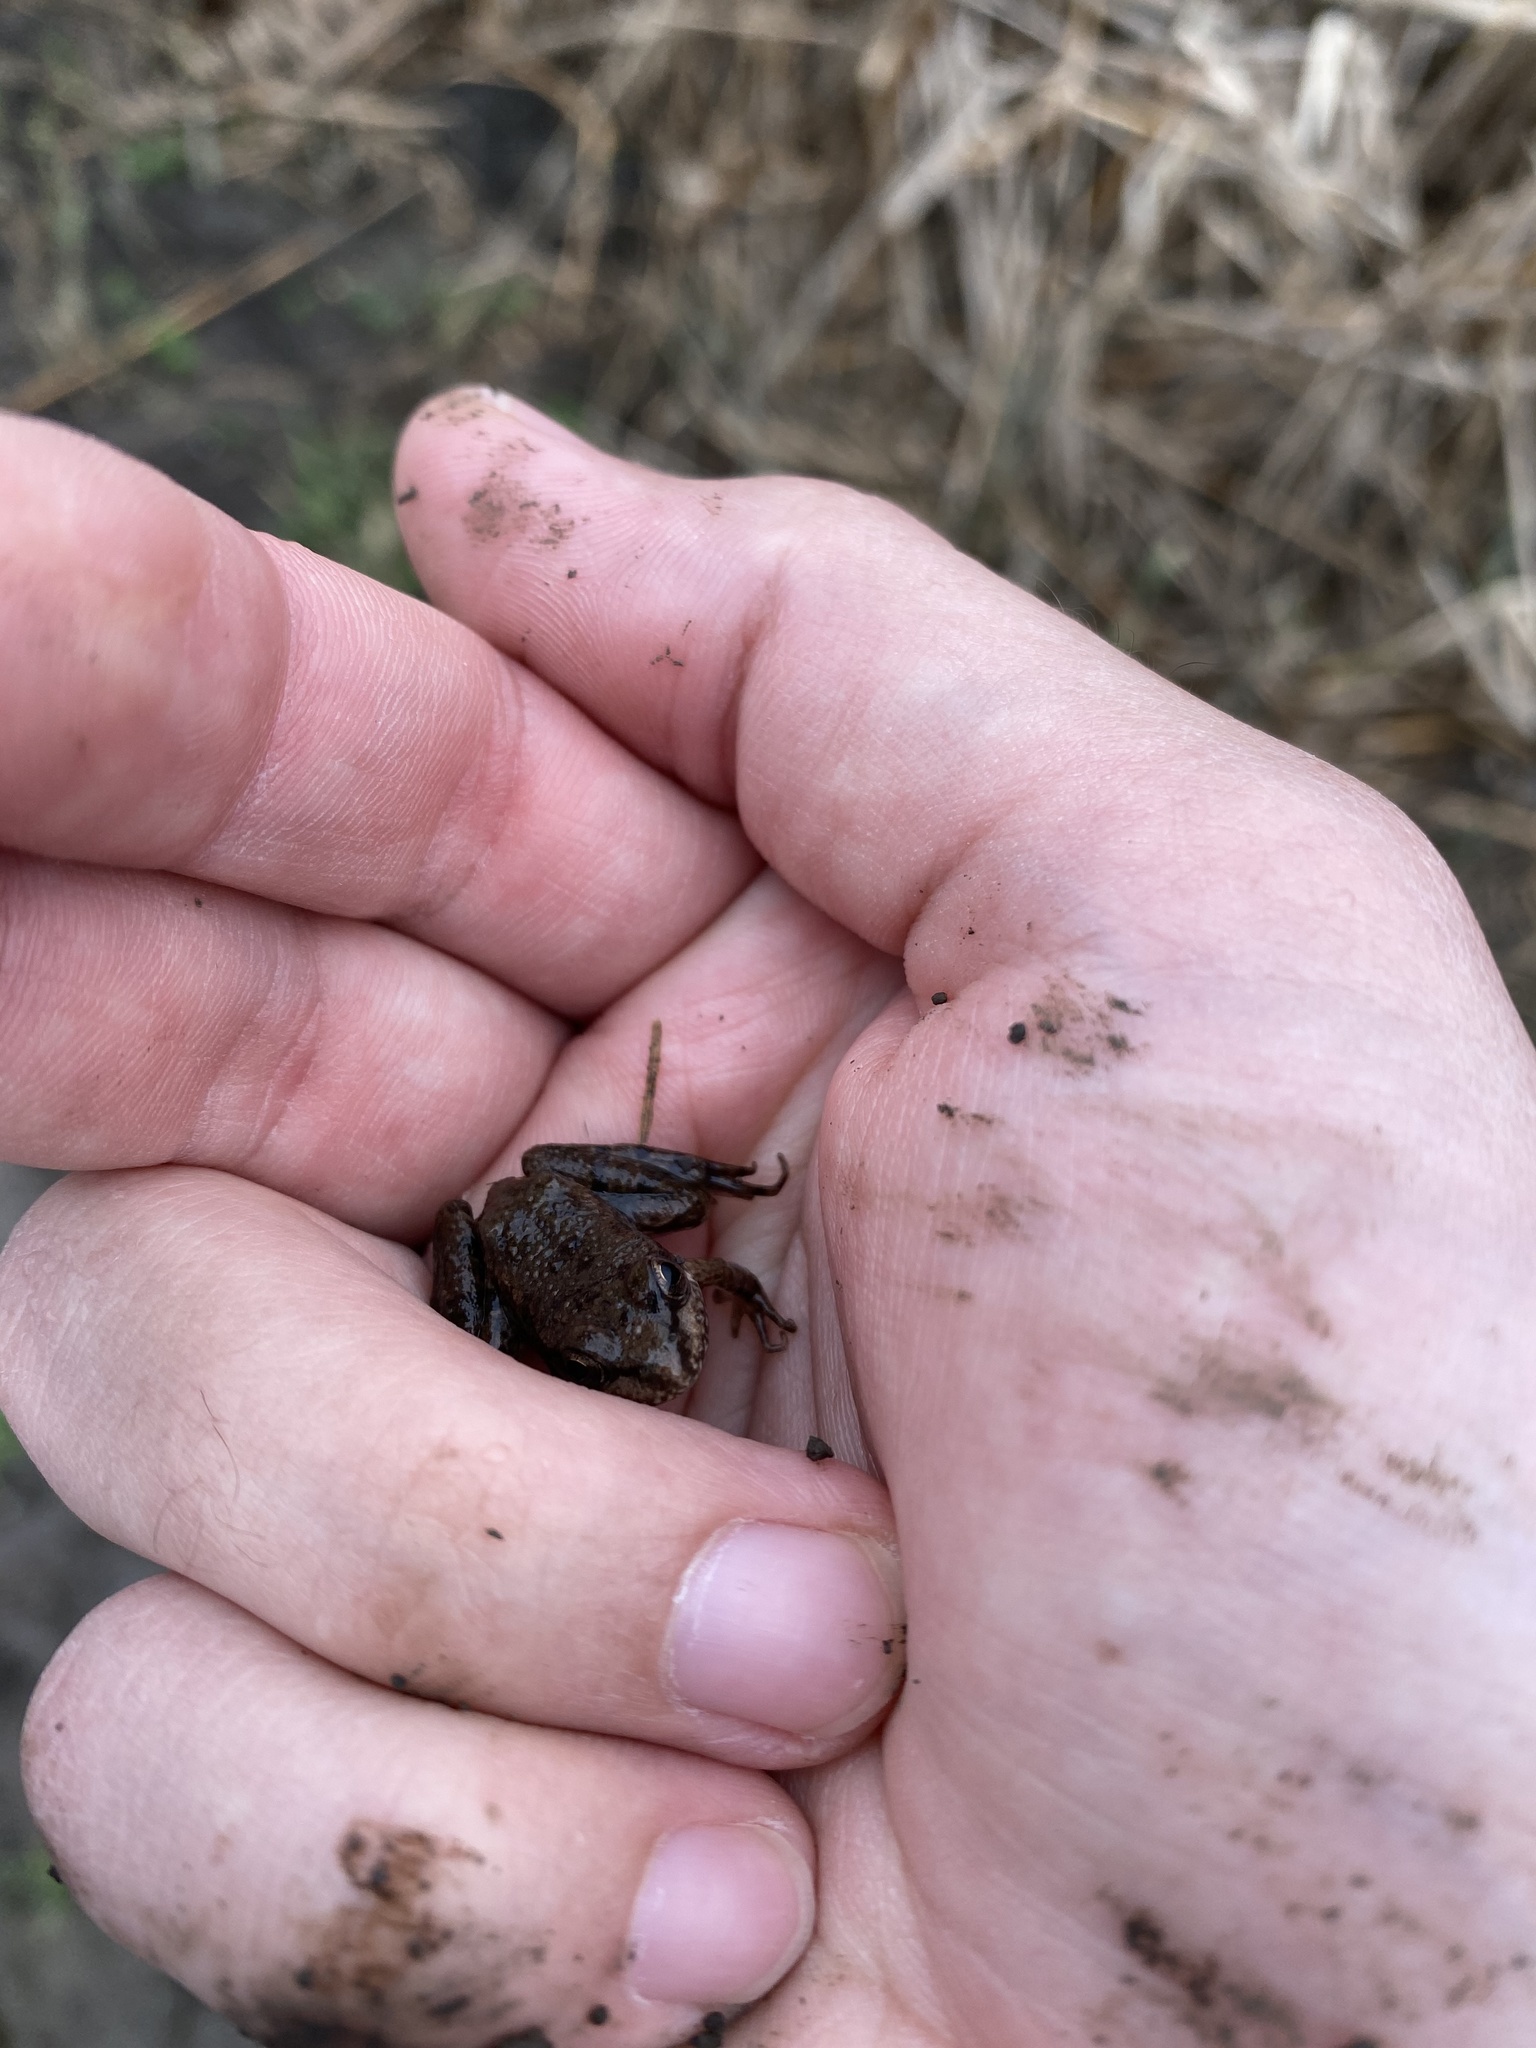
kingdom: Animalia
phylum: Chordata
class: Amphibia
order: Anura
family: Ranidae
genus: Pelophylax
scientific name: Pelophylax ridibundus
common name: Marsh frog
